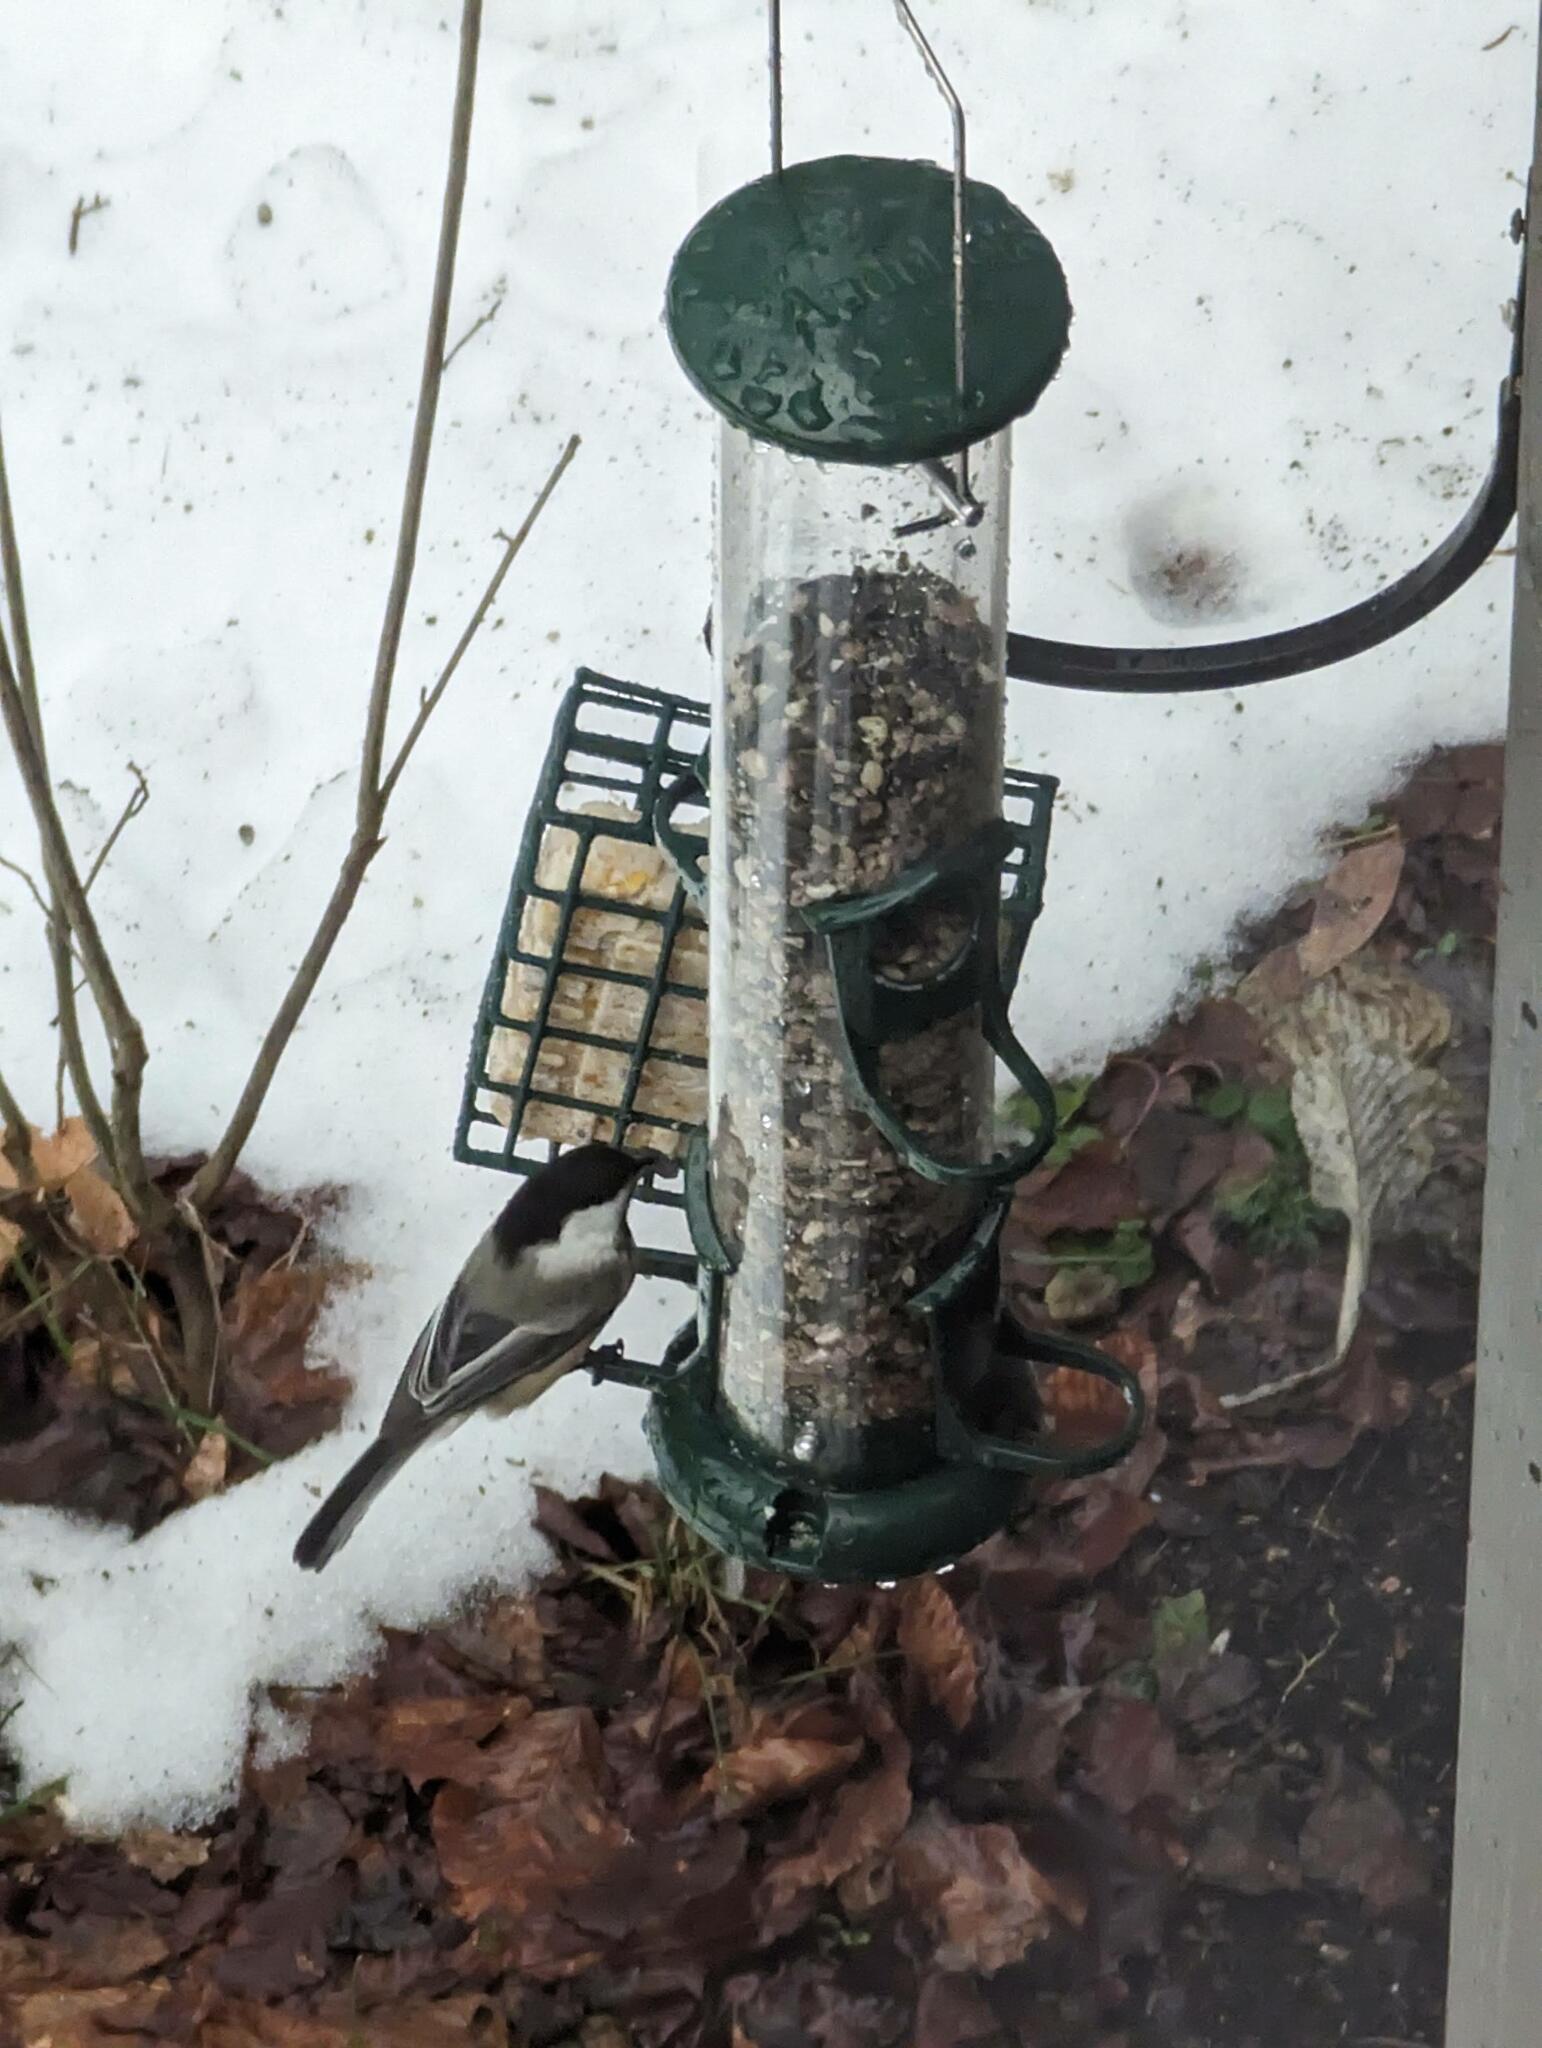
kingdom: Animalia
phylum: Chordata
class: Aves
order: Passeriformes
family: Paridae
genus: Poecile
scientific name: Poecile atricapillus
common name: Black-capped chickadee
